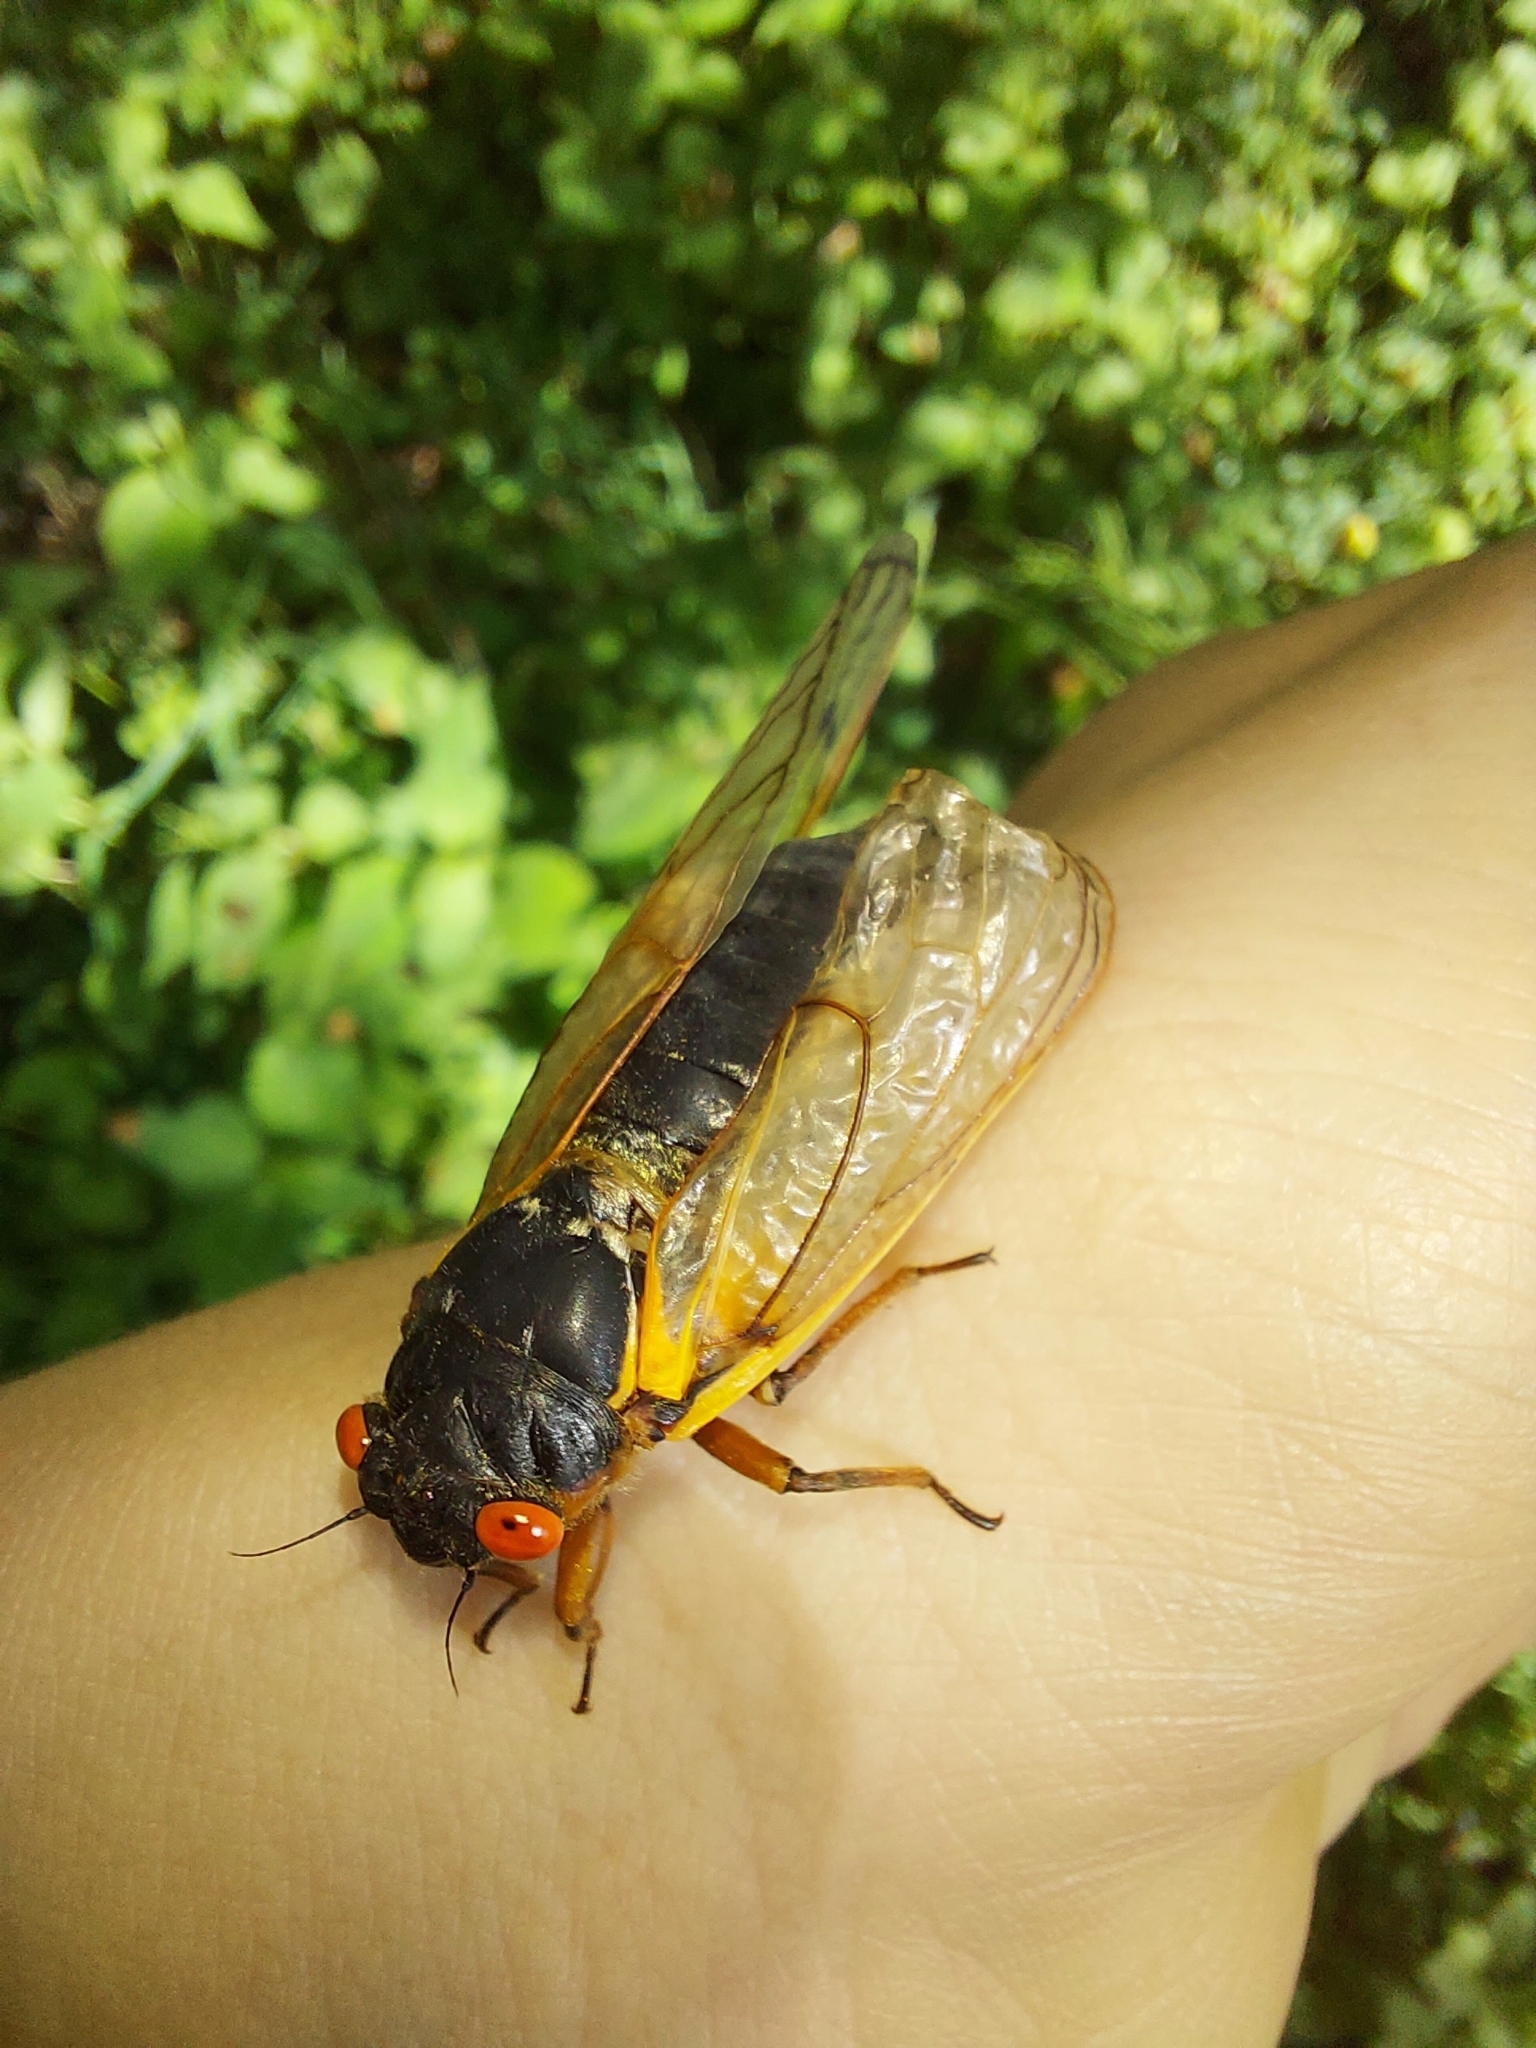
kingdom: Animalia
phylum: Arthropoda
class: Insecta
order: Hemiptera
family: Cicadidae
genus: Magicicada
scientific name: Magicicada septendecim
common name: Periodical cicada
